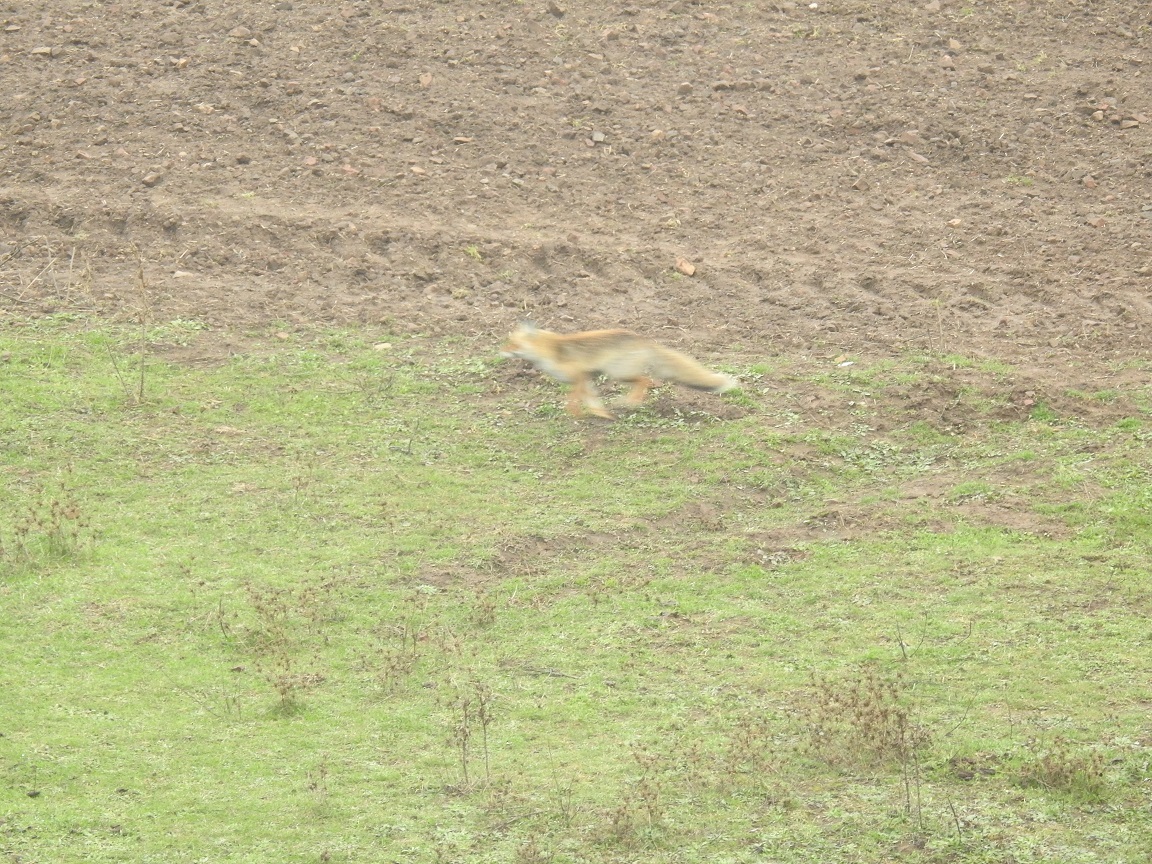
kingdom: Animalia
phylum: Chordata
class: Mammalia
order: Carnivora
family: Canidae
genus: Vulpes
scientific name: Vulpes vulpes
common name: Red fox
